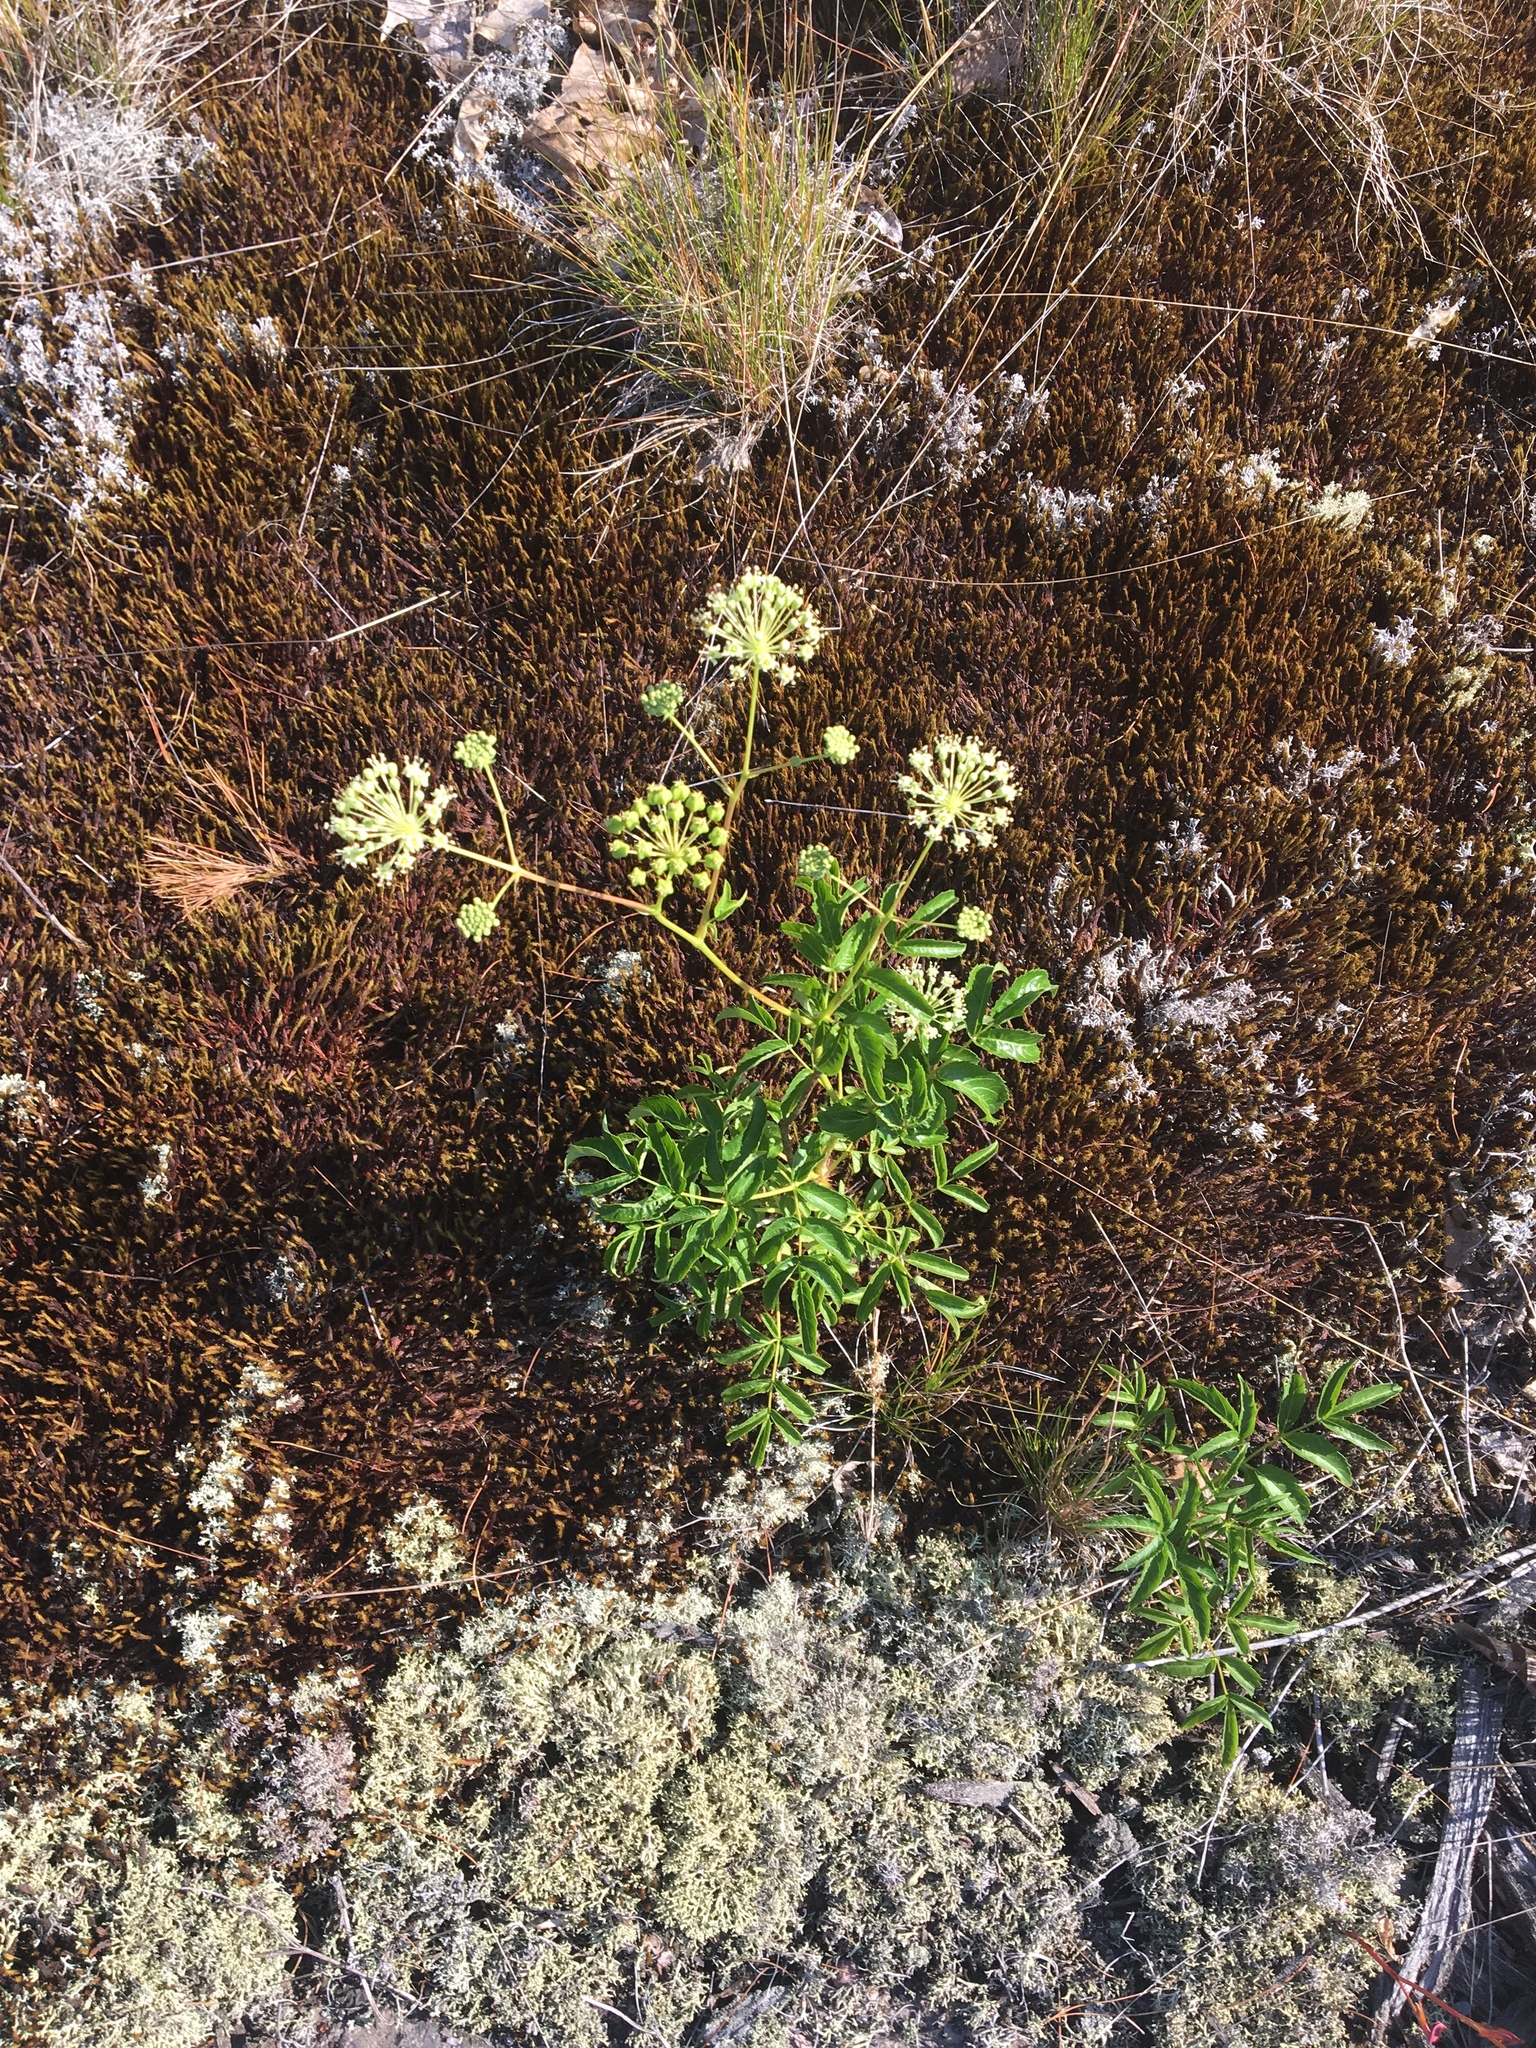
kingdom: Plantae
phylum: Tracheophyta
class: Magnoliopsida
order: Apiales
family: Araliaceae
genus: Aralia
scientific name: Aralia hispida
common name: Bristly sarsaparilla
